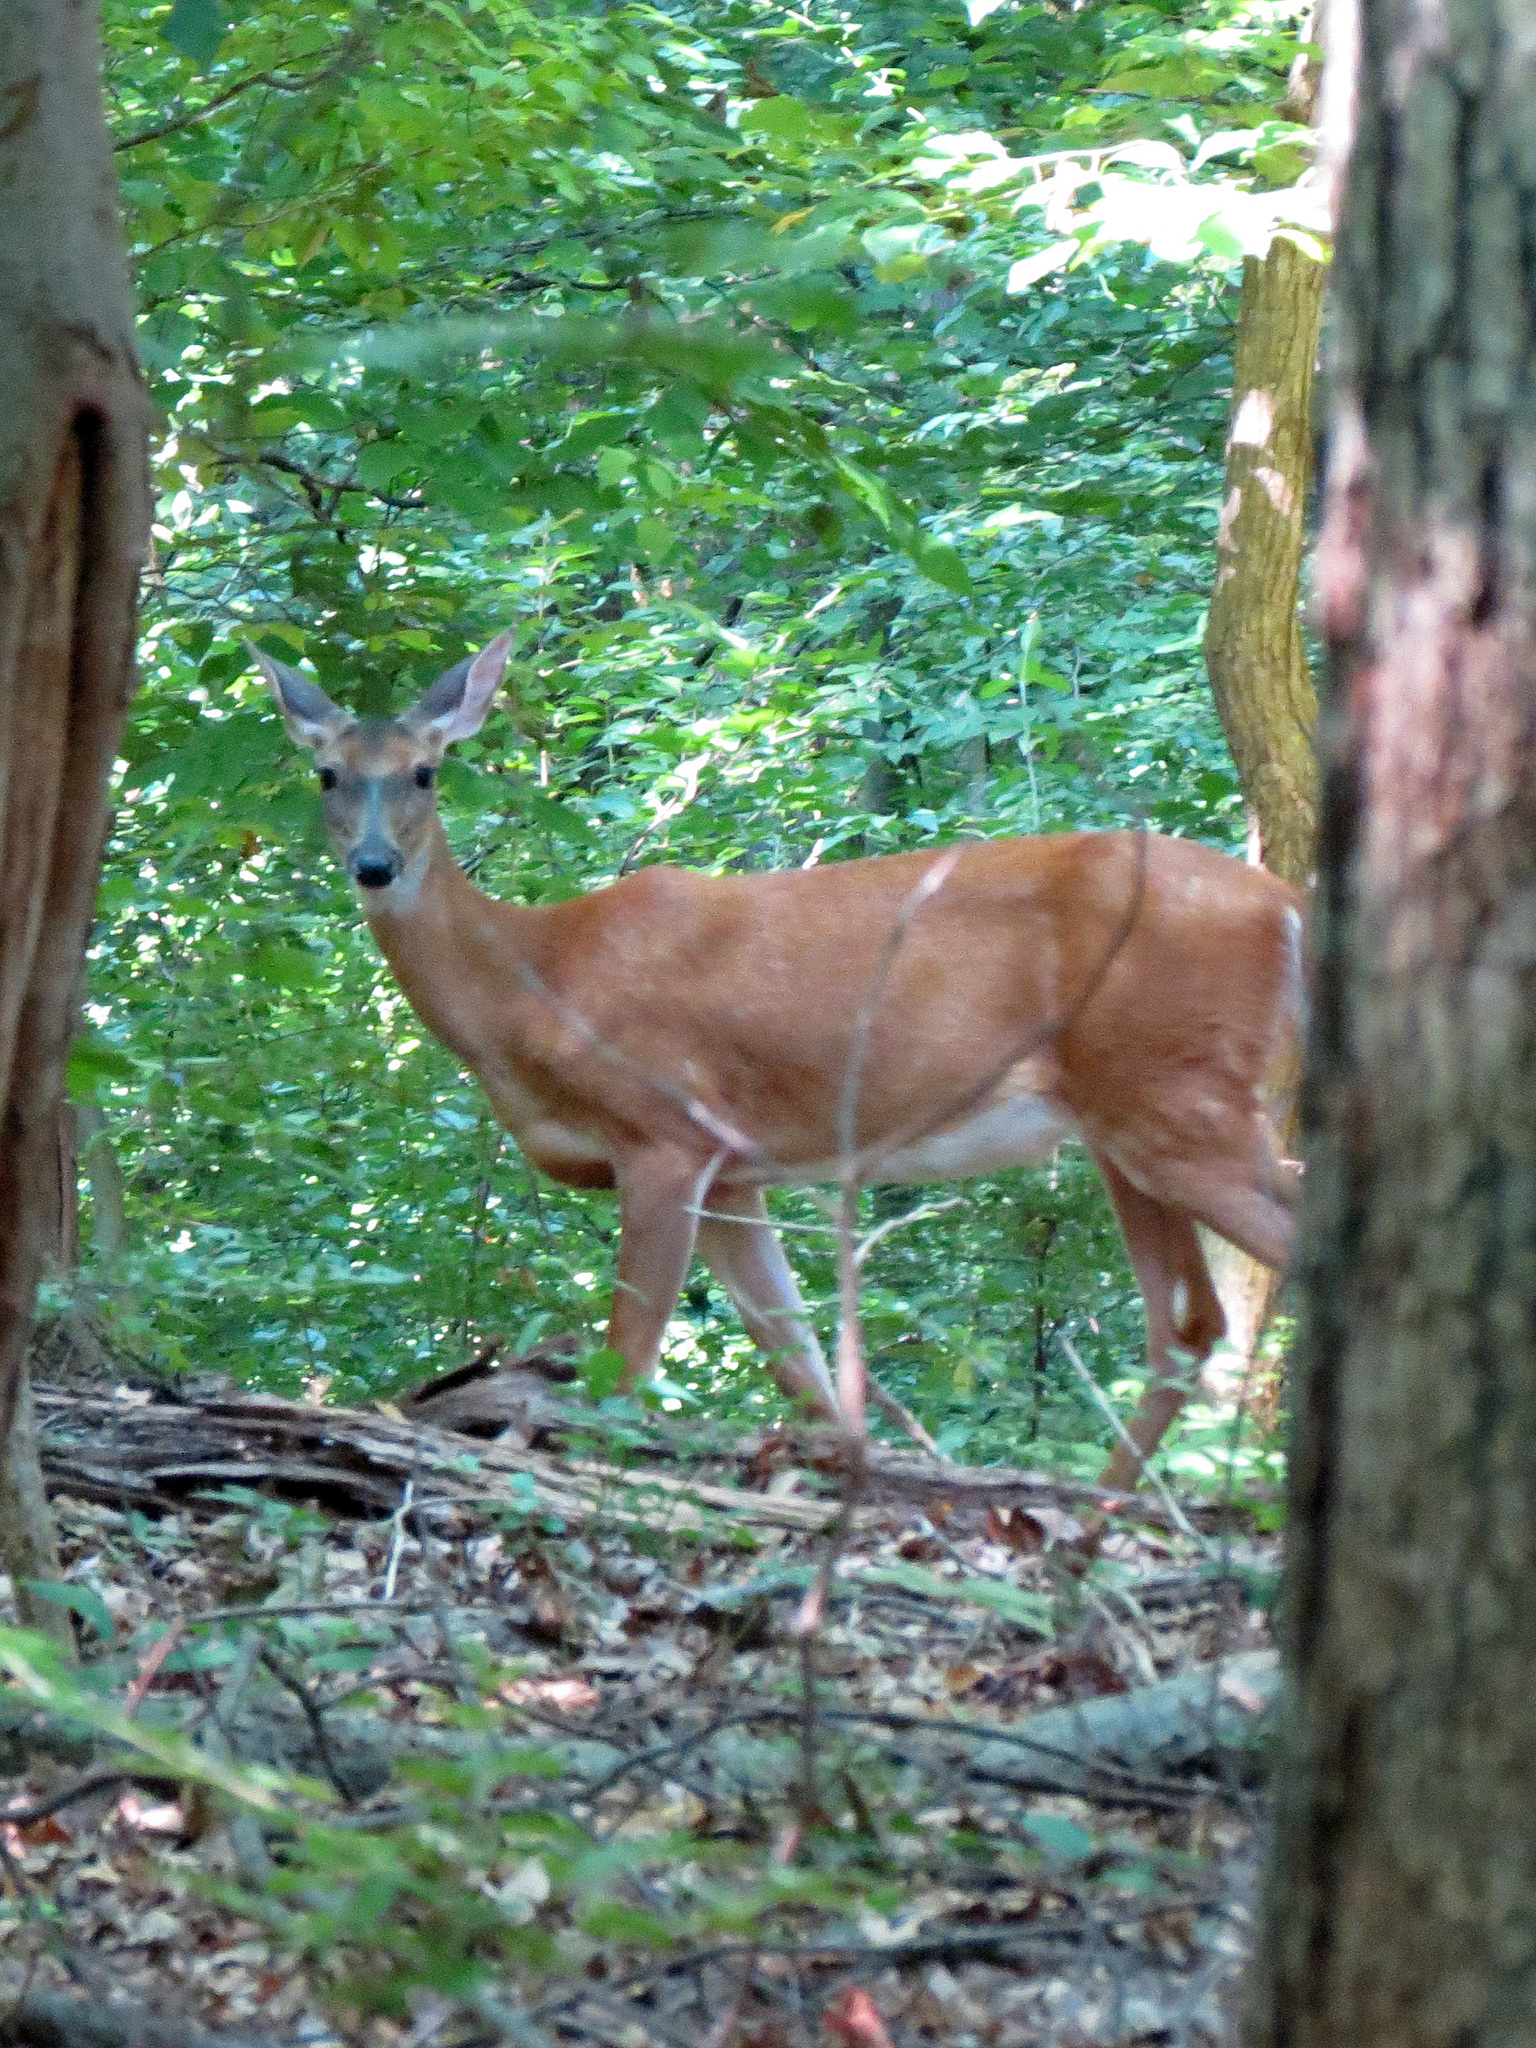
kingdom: Animalia
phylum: Chordata
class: Mammalia
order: Artiodactyla
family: Cervidae
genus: Odocoileus
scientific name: Odocoileus virginianus
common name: White-tailed deer
